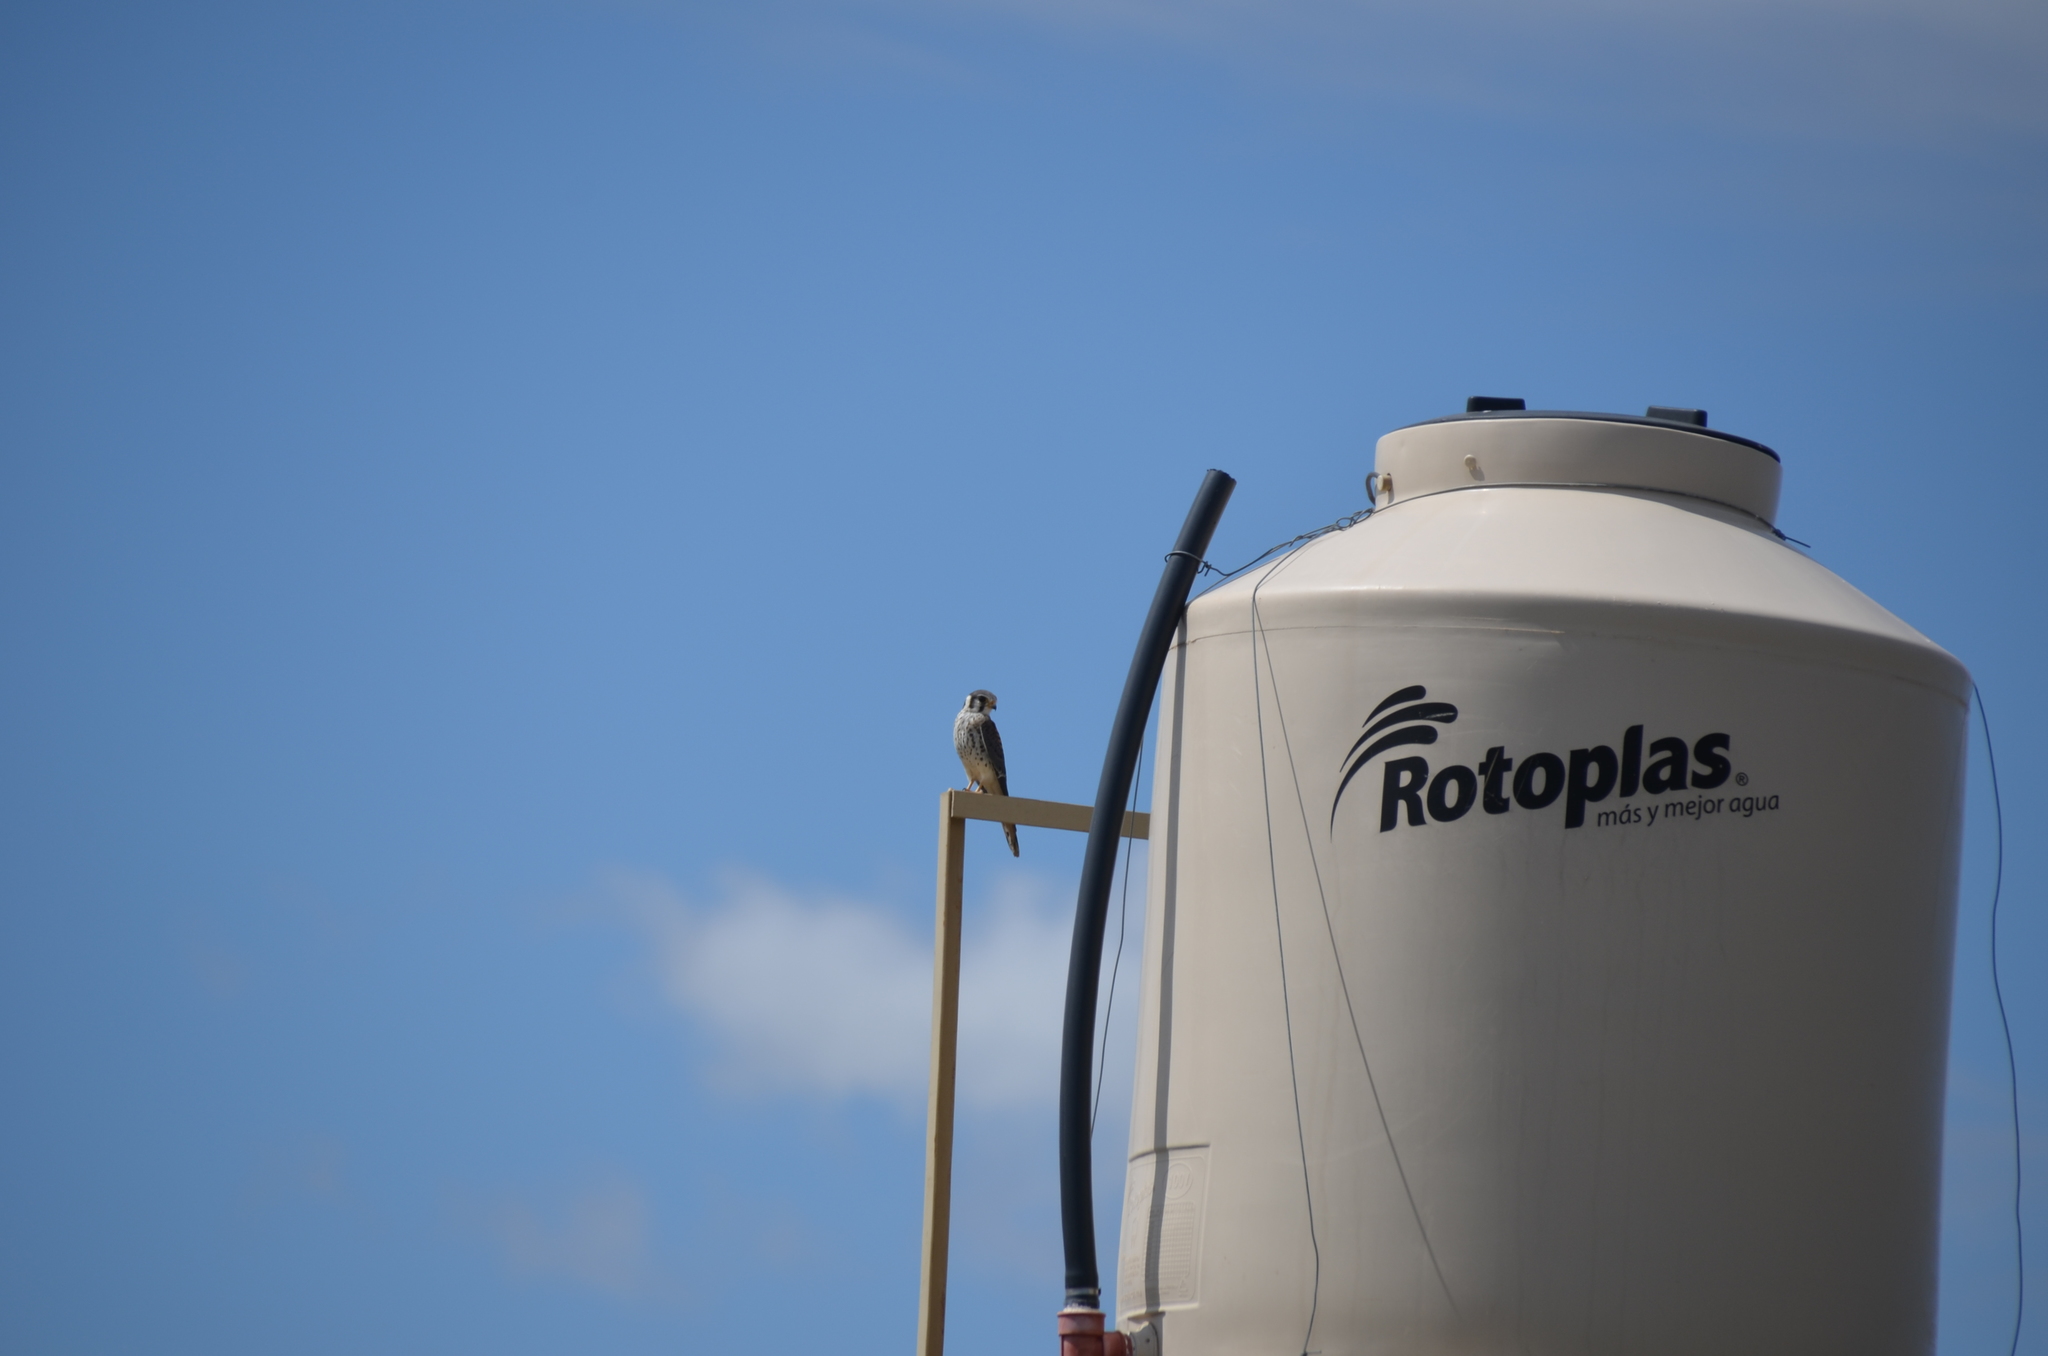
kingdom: Animalia
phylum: Chordata
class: Aves
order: Falconiformes
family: Falconidae
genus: Falco
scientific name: Falco sparverius
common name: American kestrel
